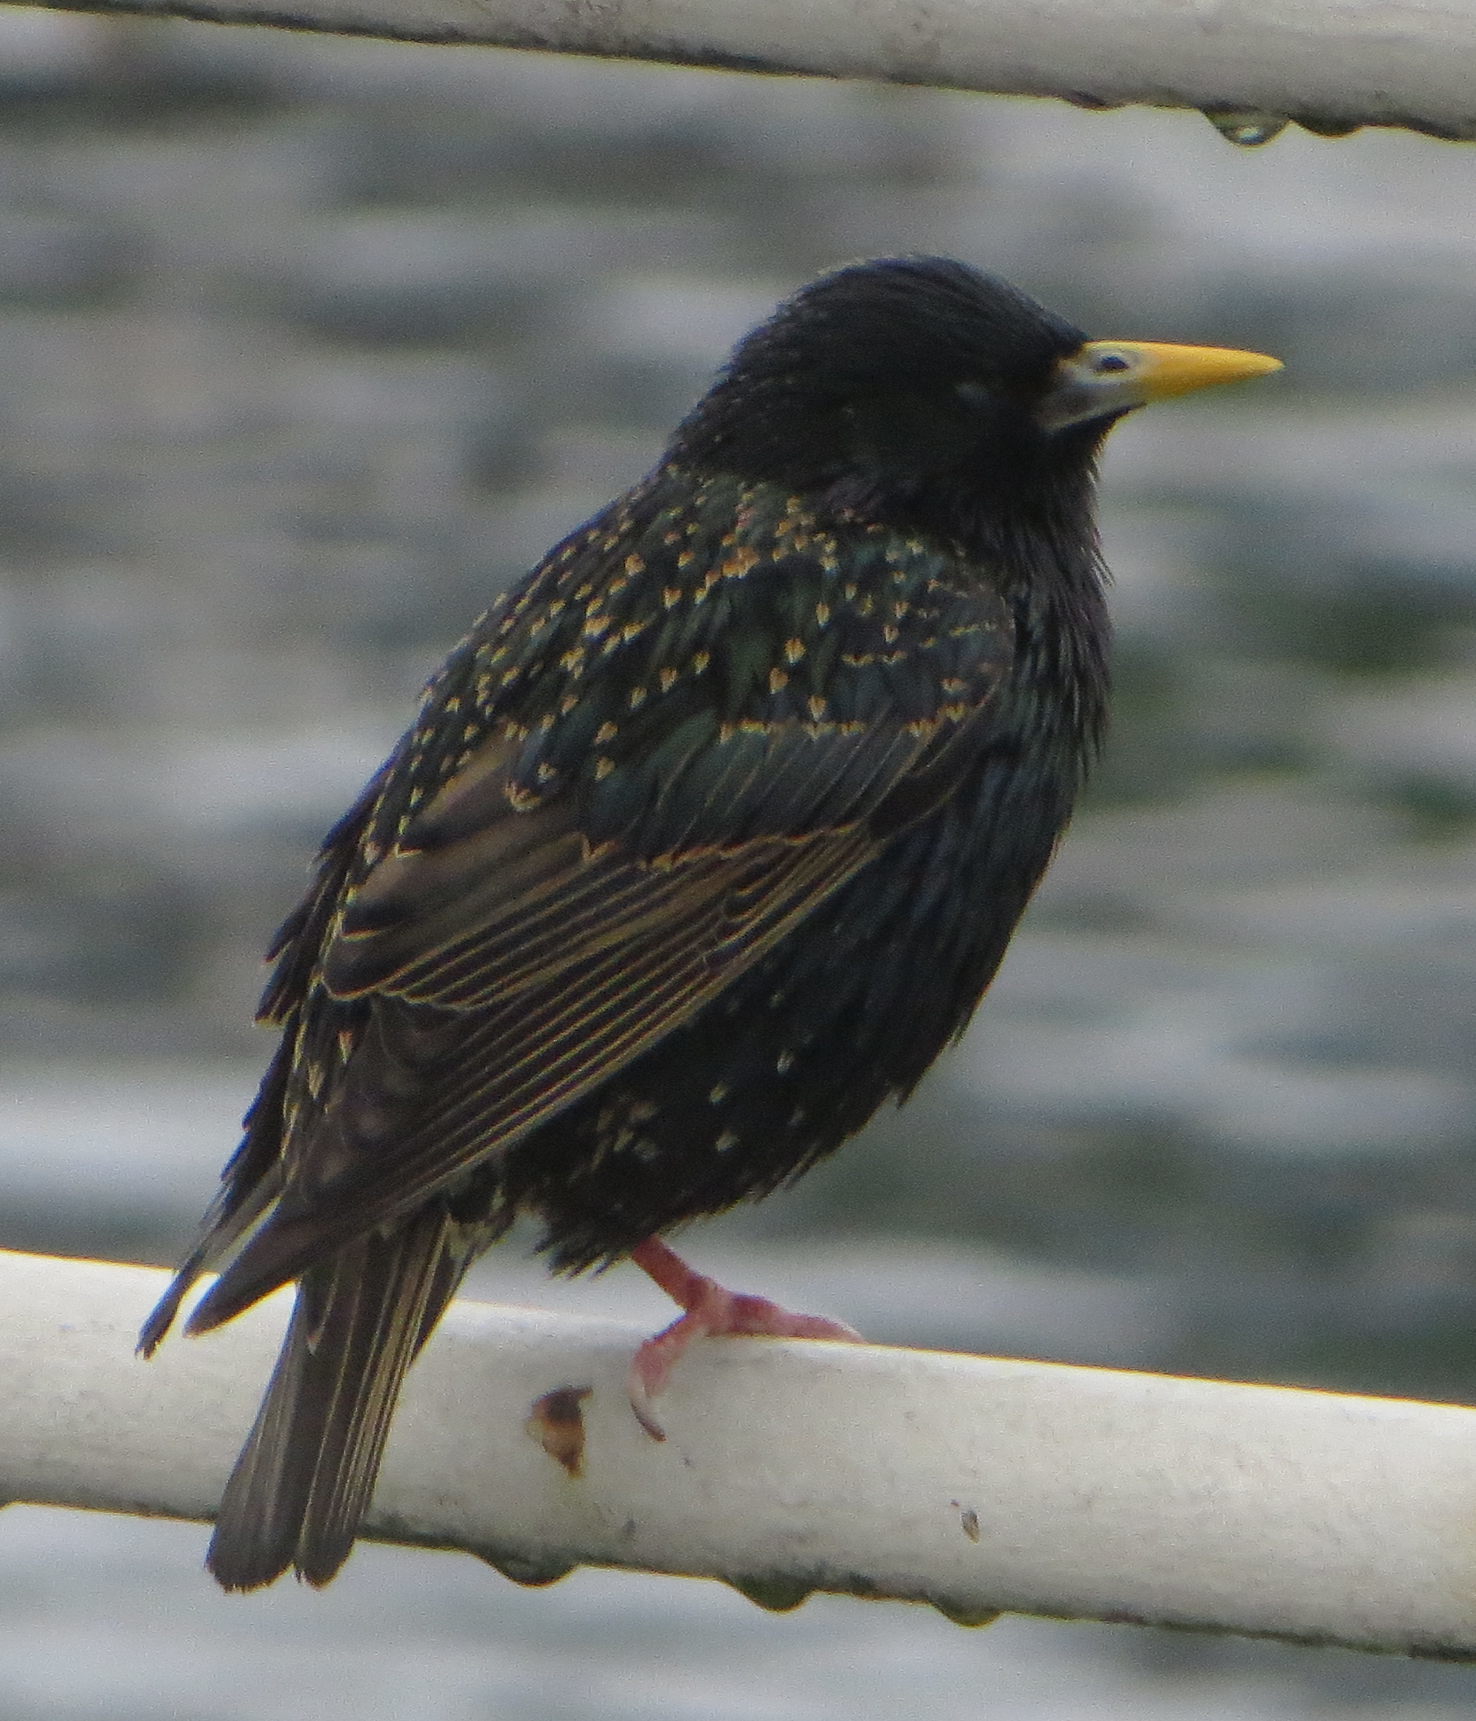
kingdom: Animalia
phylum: Chordata
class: Aves
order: Passeriformes
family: Sturnidae
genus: Sturnus
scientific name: Sturnus vulgaris
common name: Common starling
